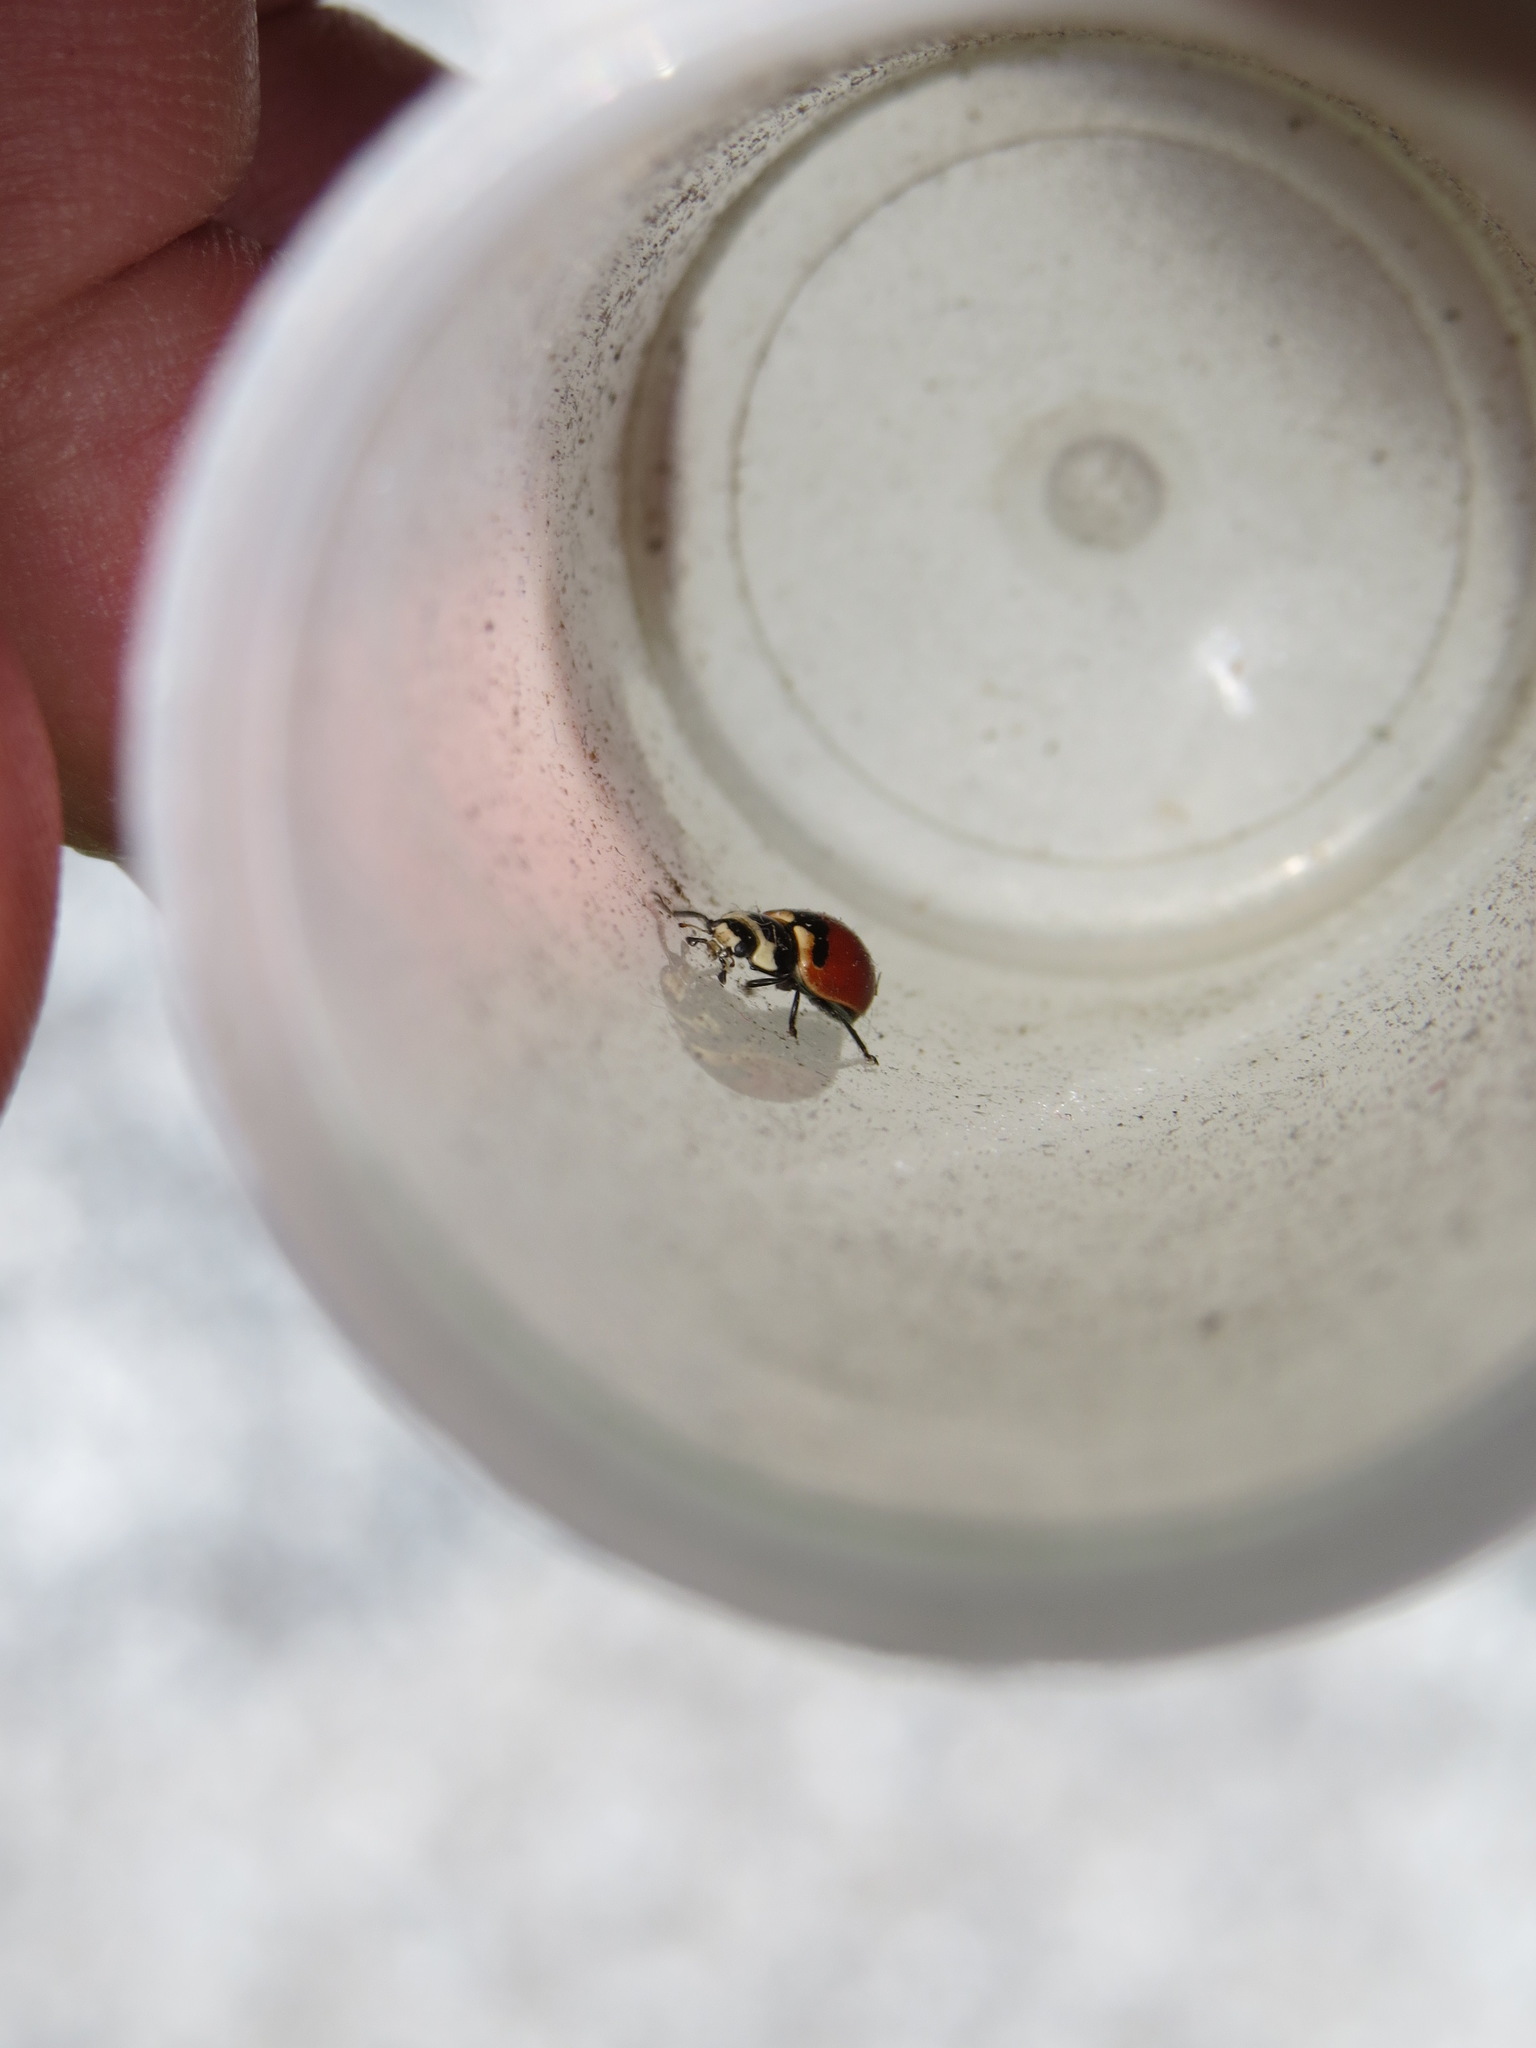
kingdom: Animalia
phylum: Arthropoda
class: Insecta
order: Coleoptera
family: Coccinellidae
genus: Coccinella
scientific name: Coccinella trifasciata
